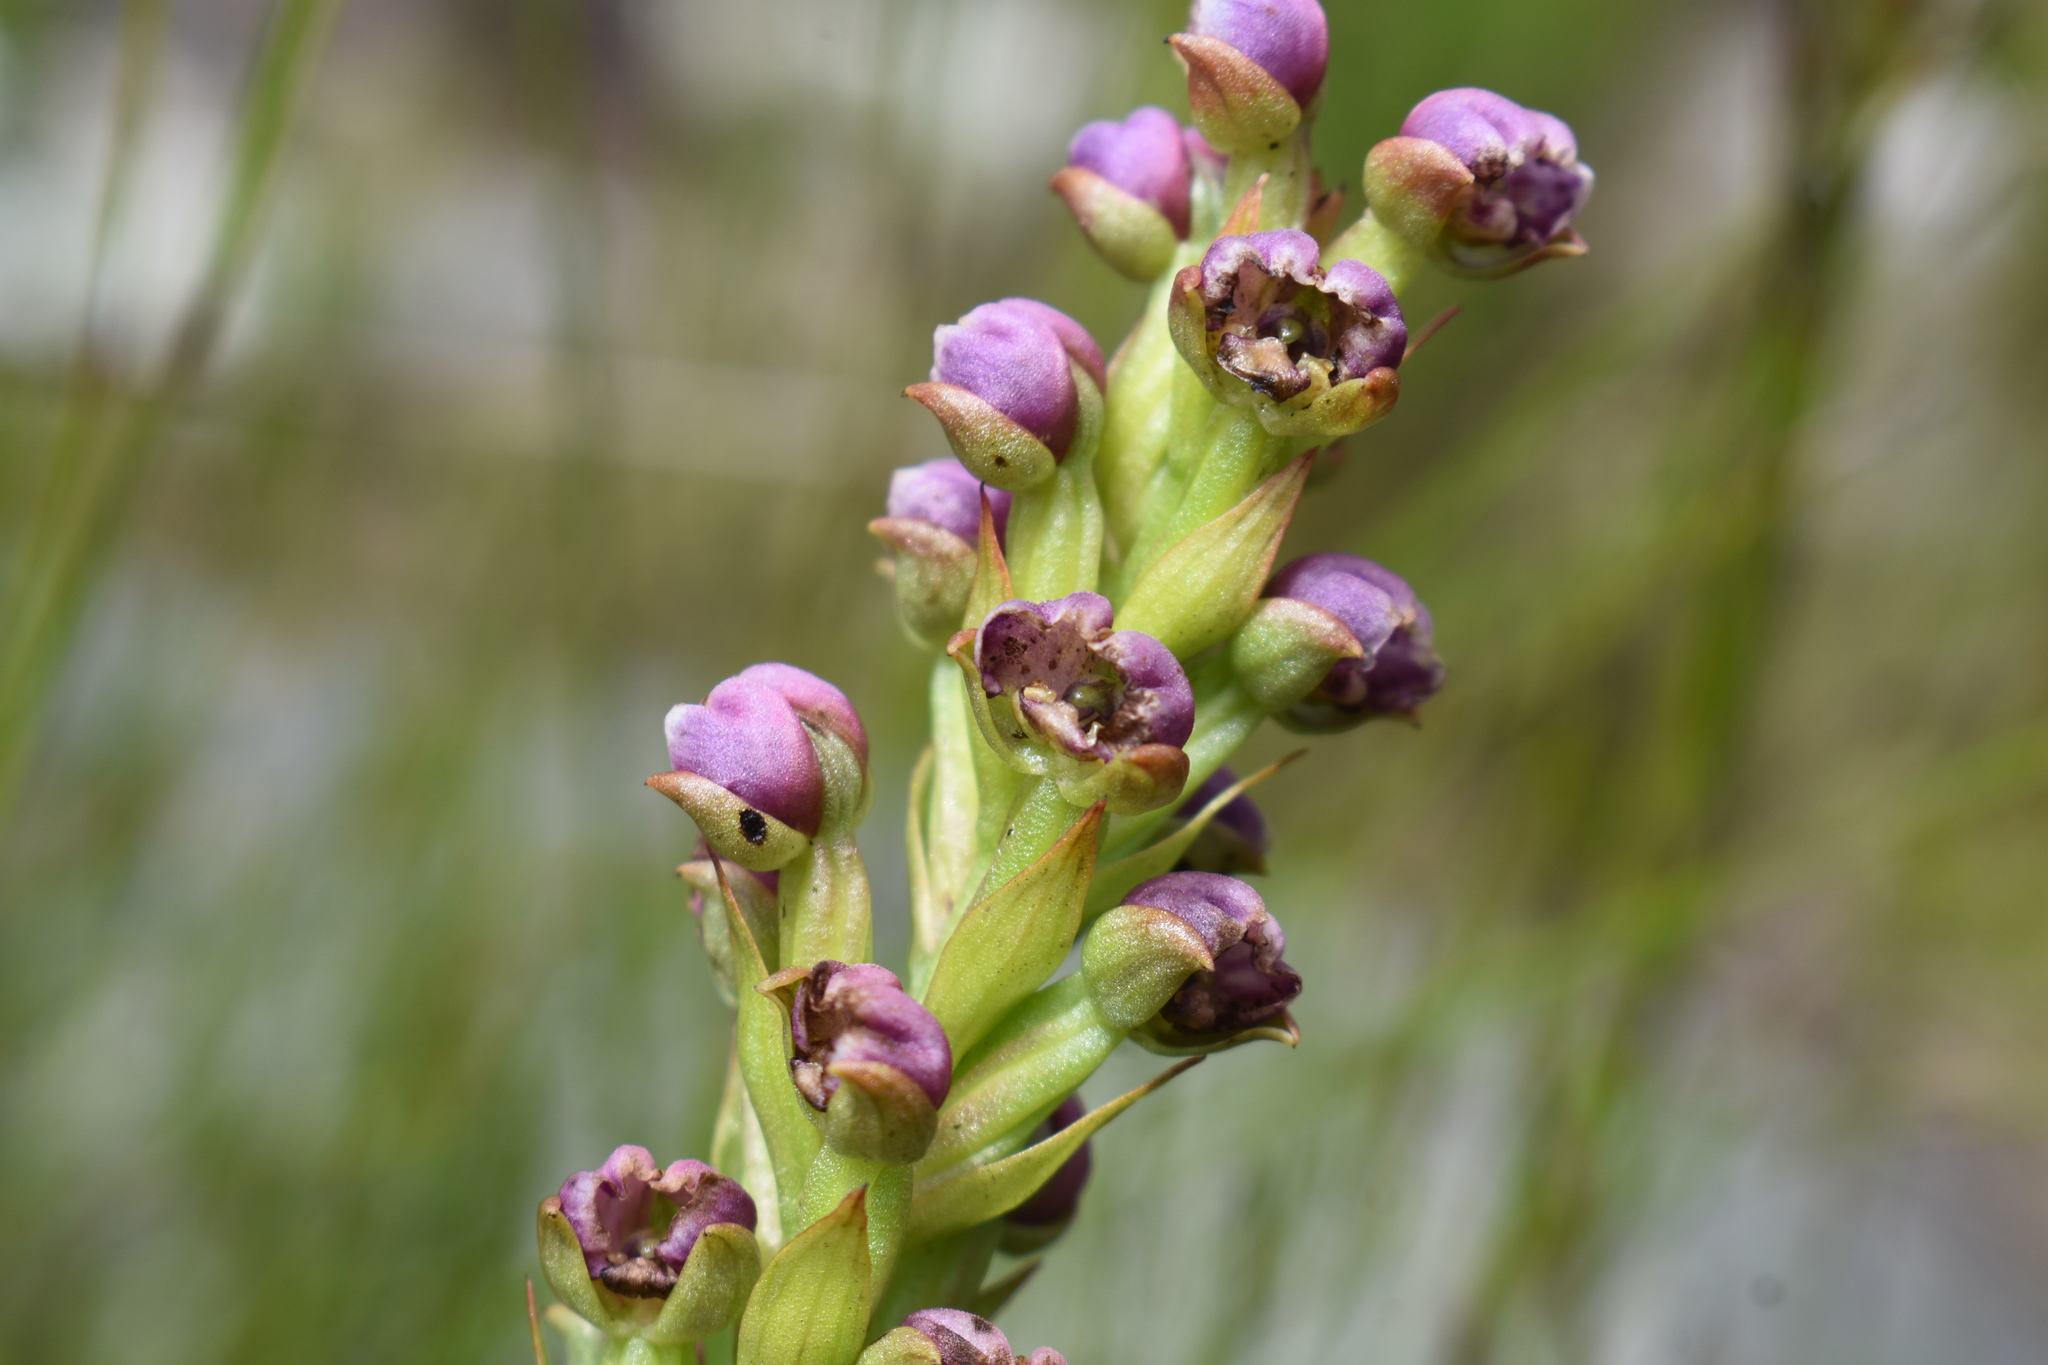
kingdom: Plantae
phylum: Tracheophyta
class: Liliopsida
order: Asparagales
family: Orchidaceae
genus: Evotella
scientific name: Evotella carnosa
